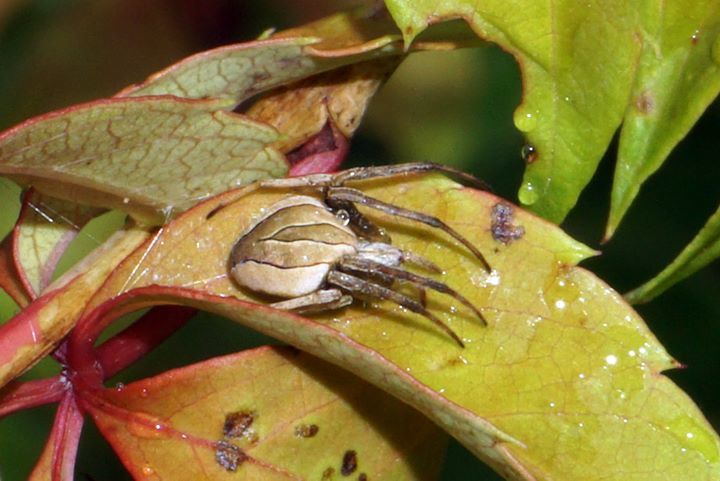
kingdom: Animalia
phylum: Arthropoda
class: Arachnida
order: Araneae
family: Araneidae
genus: Acacesia
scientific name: Acacesia hamata
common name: Orb weavers
